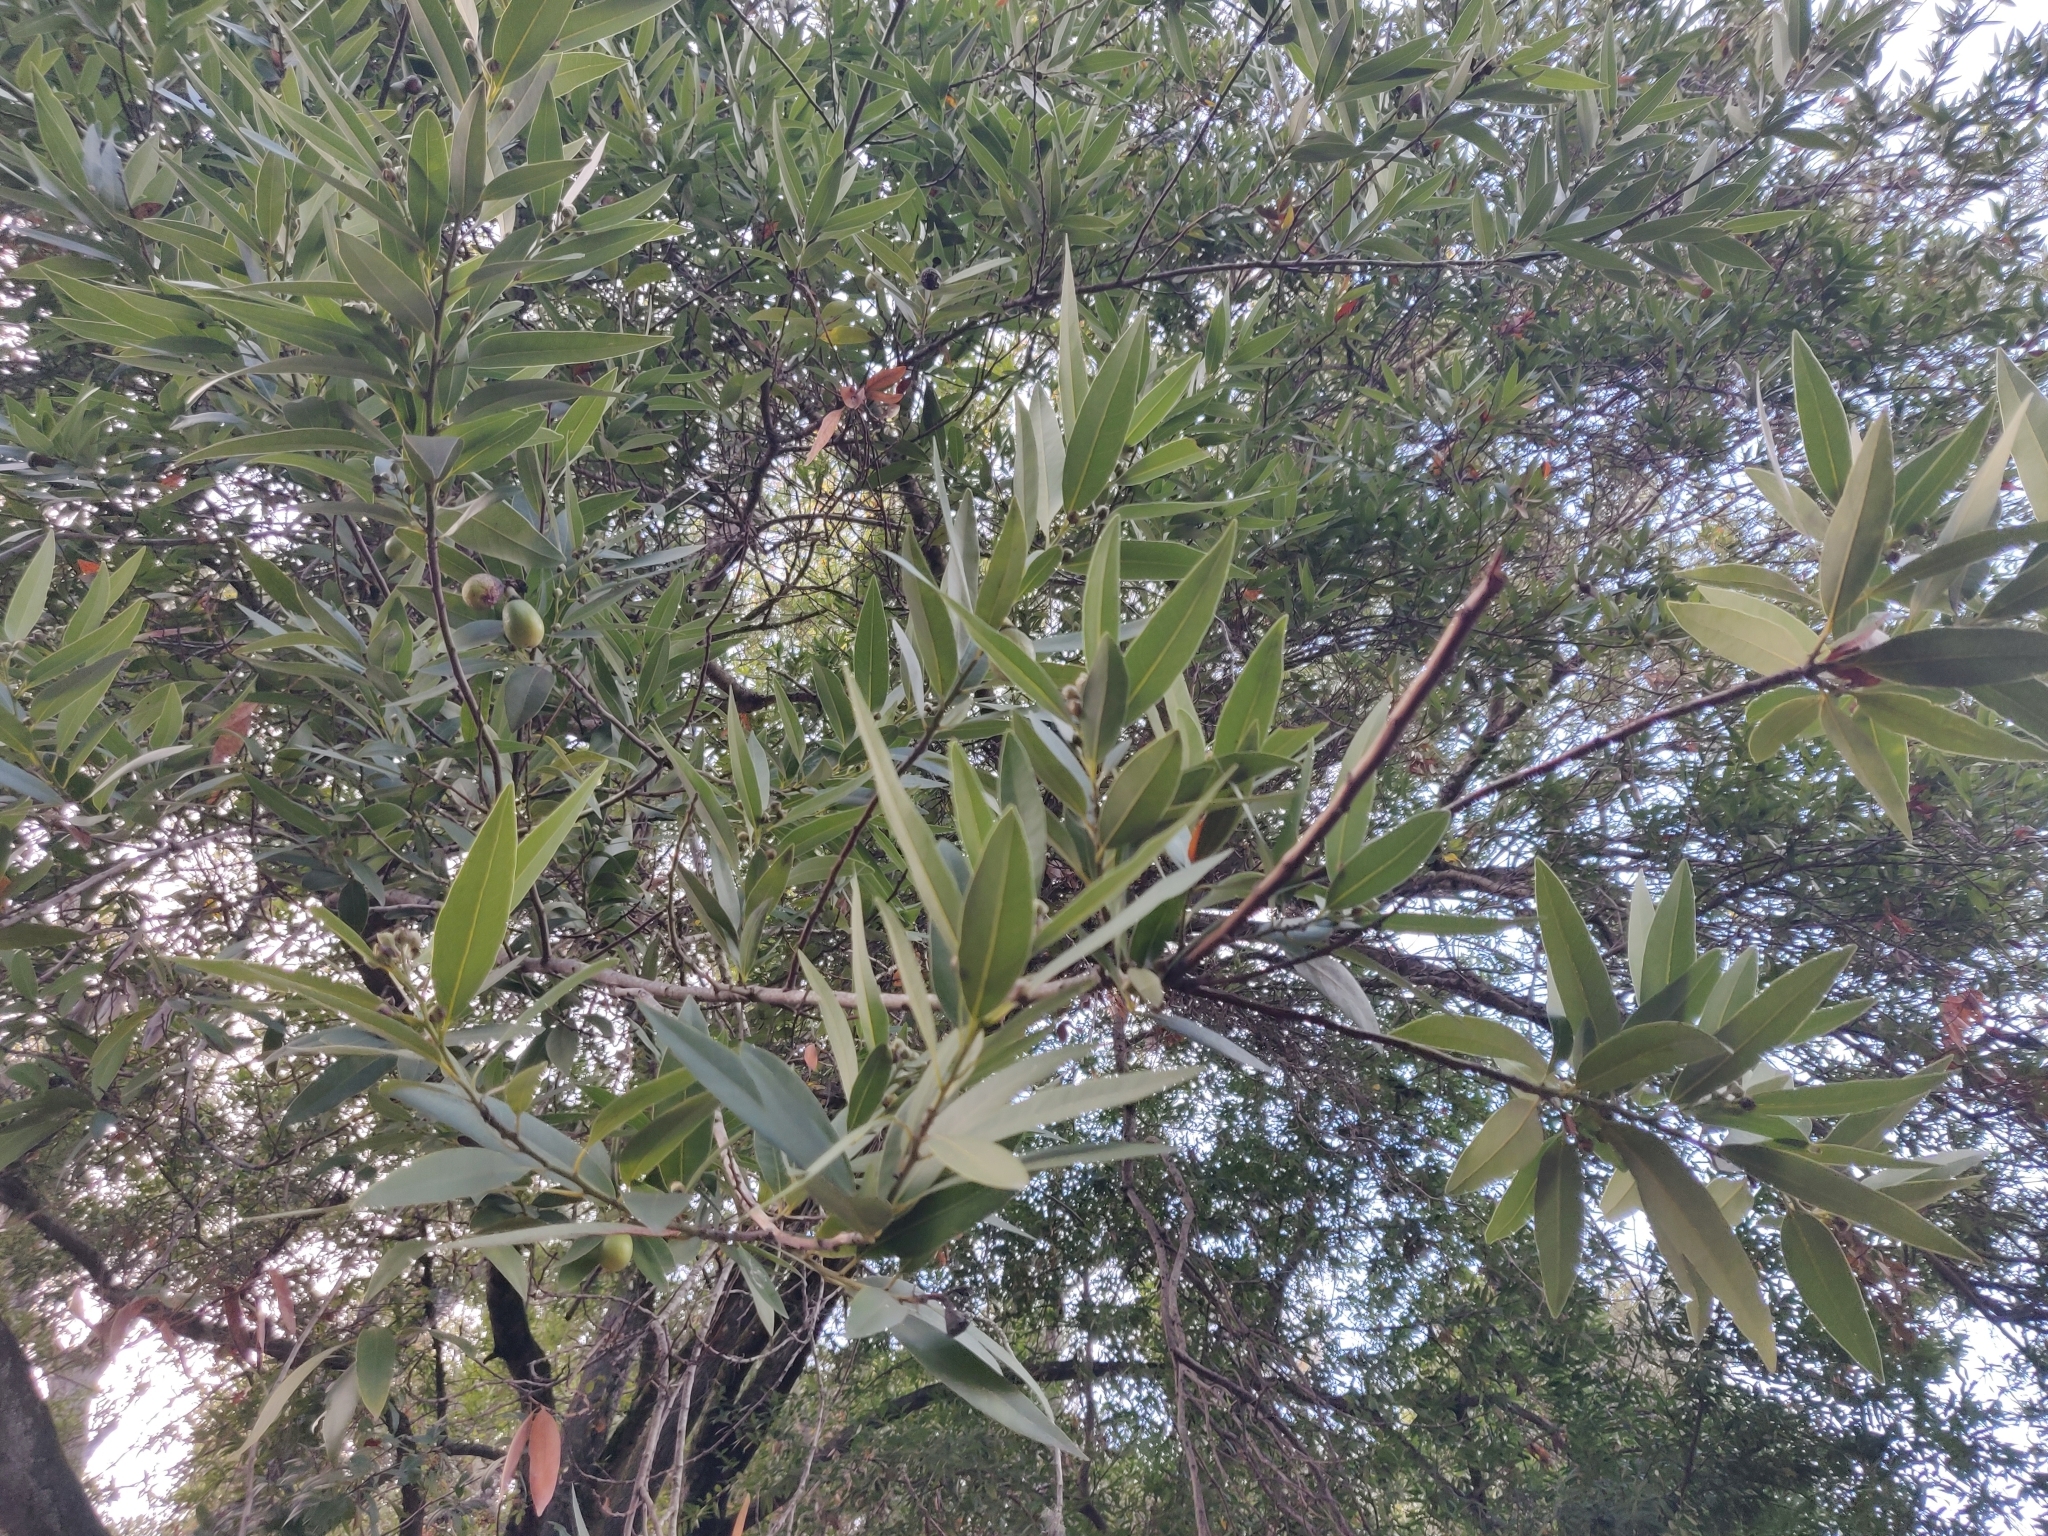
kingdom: Plantae
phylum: Tracheophyta
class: Magnoliopsida
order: Laurales
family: Lauraceae
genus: Umbellularia
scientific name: Umbellularia californica
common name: California bay
